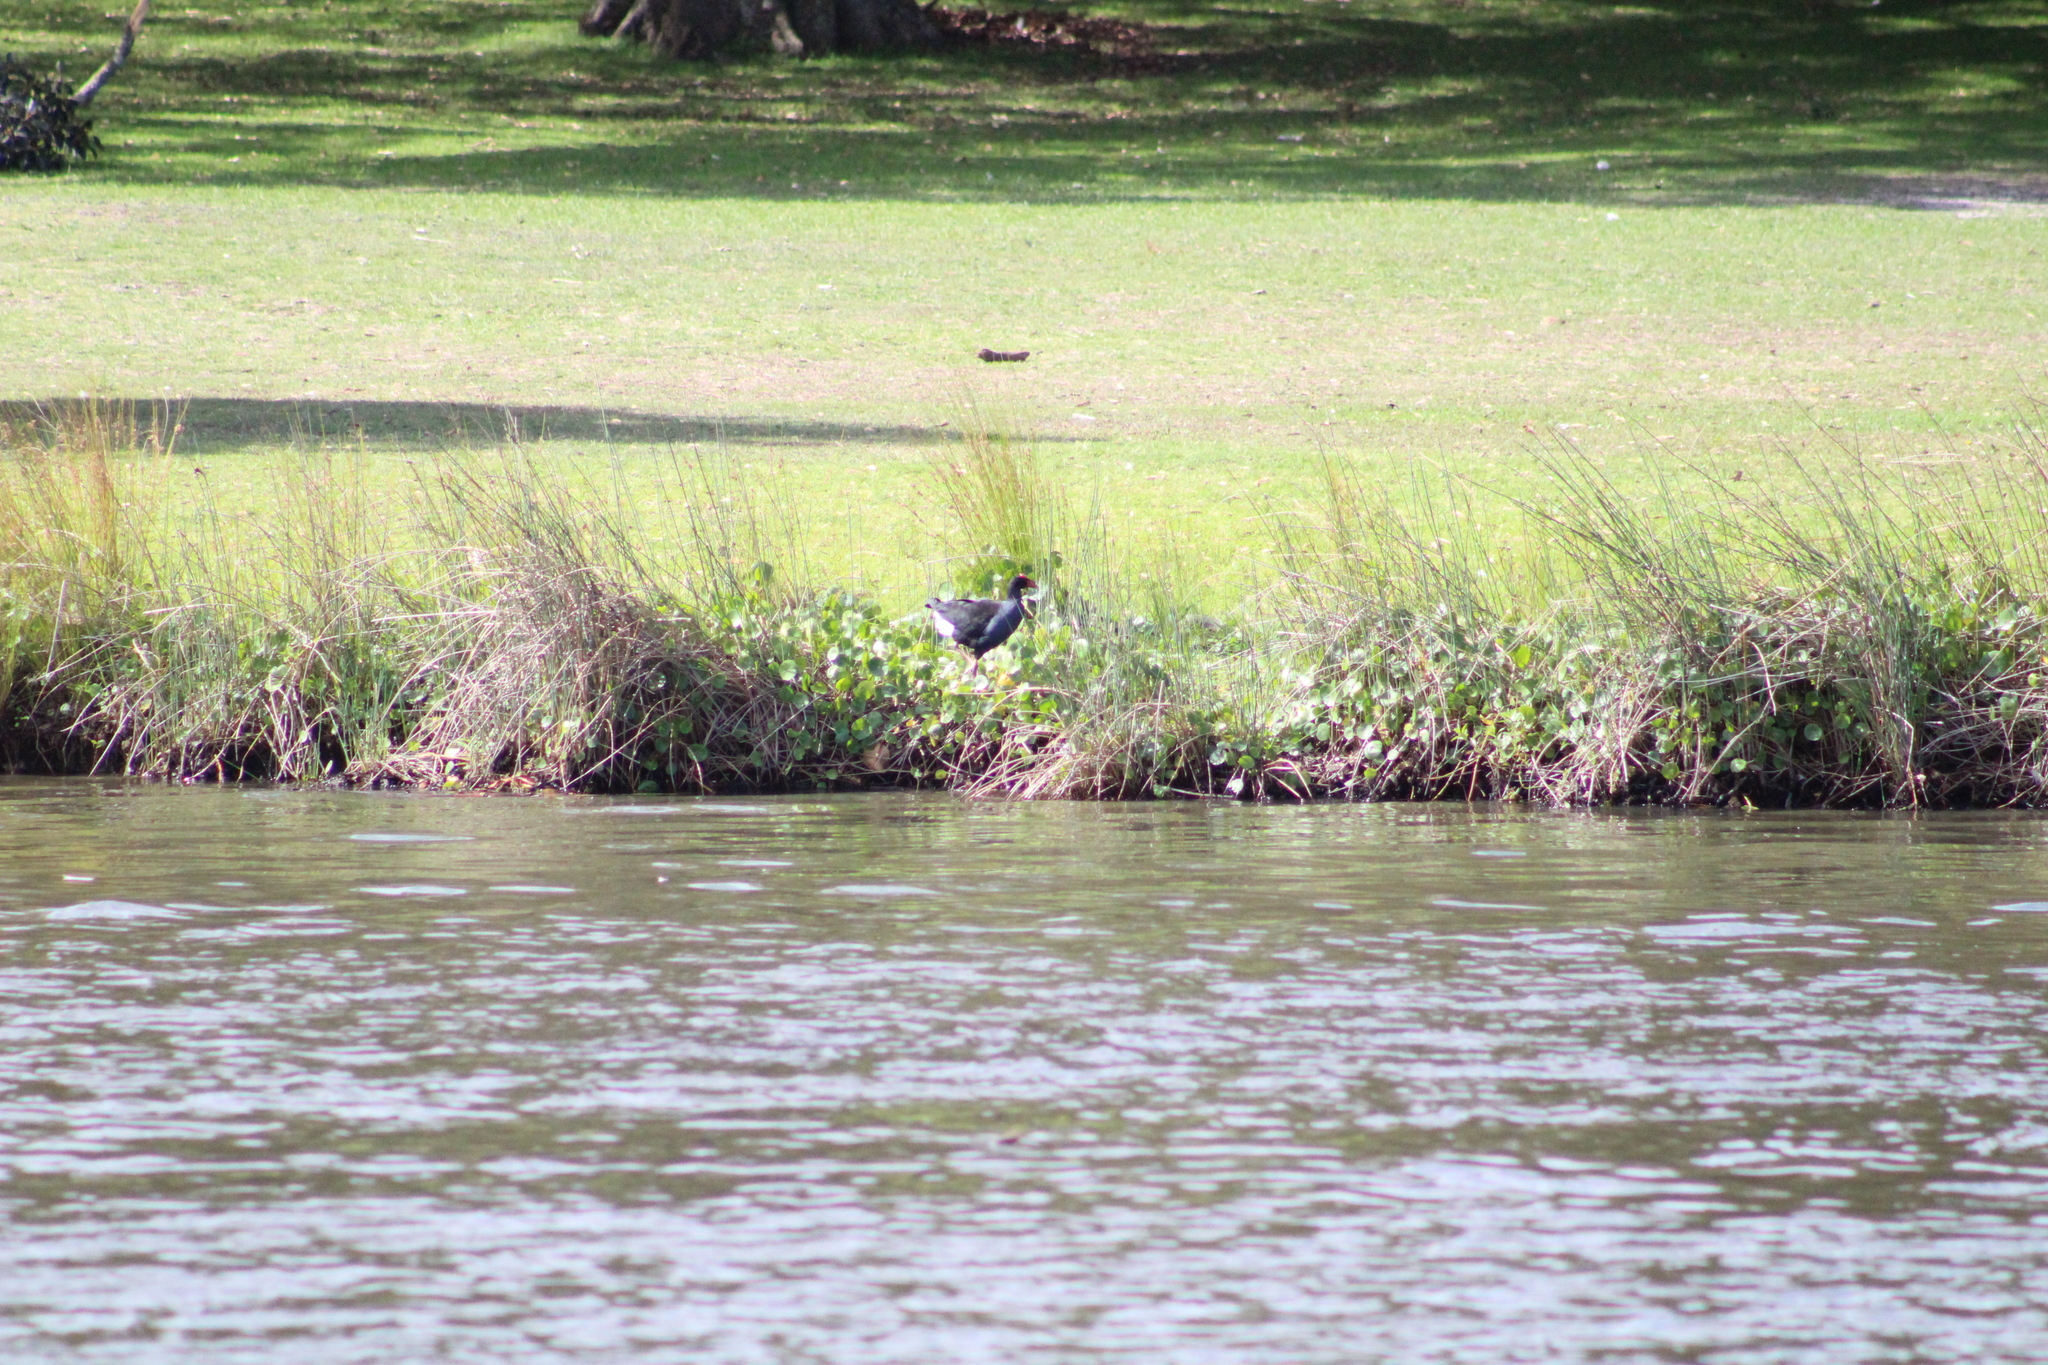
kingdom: Animalia
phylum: Chordata
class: Aves
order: Gruiformes
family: Rallidae
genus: Porphyrio
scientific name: Porphyrio melanotus
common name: Australasian swamphen
